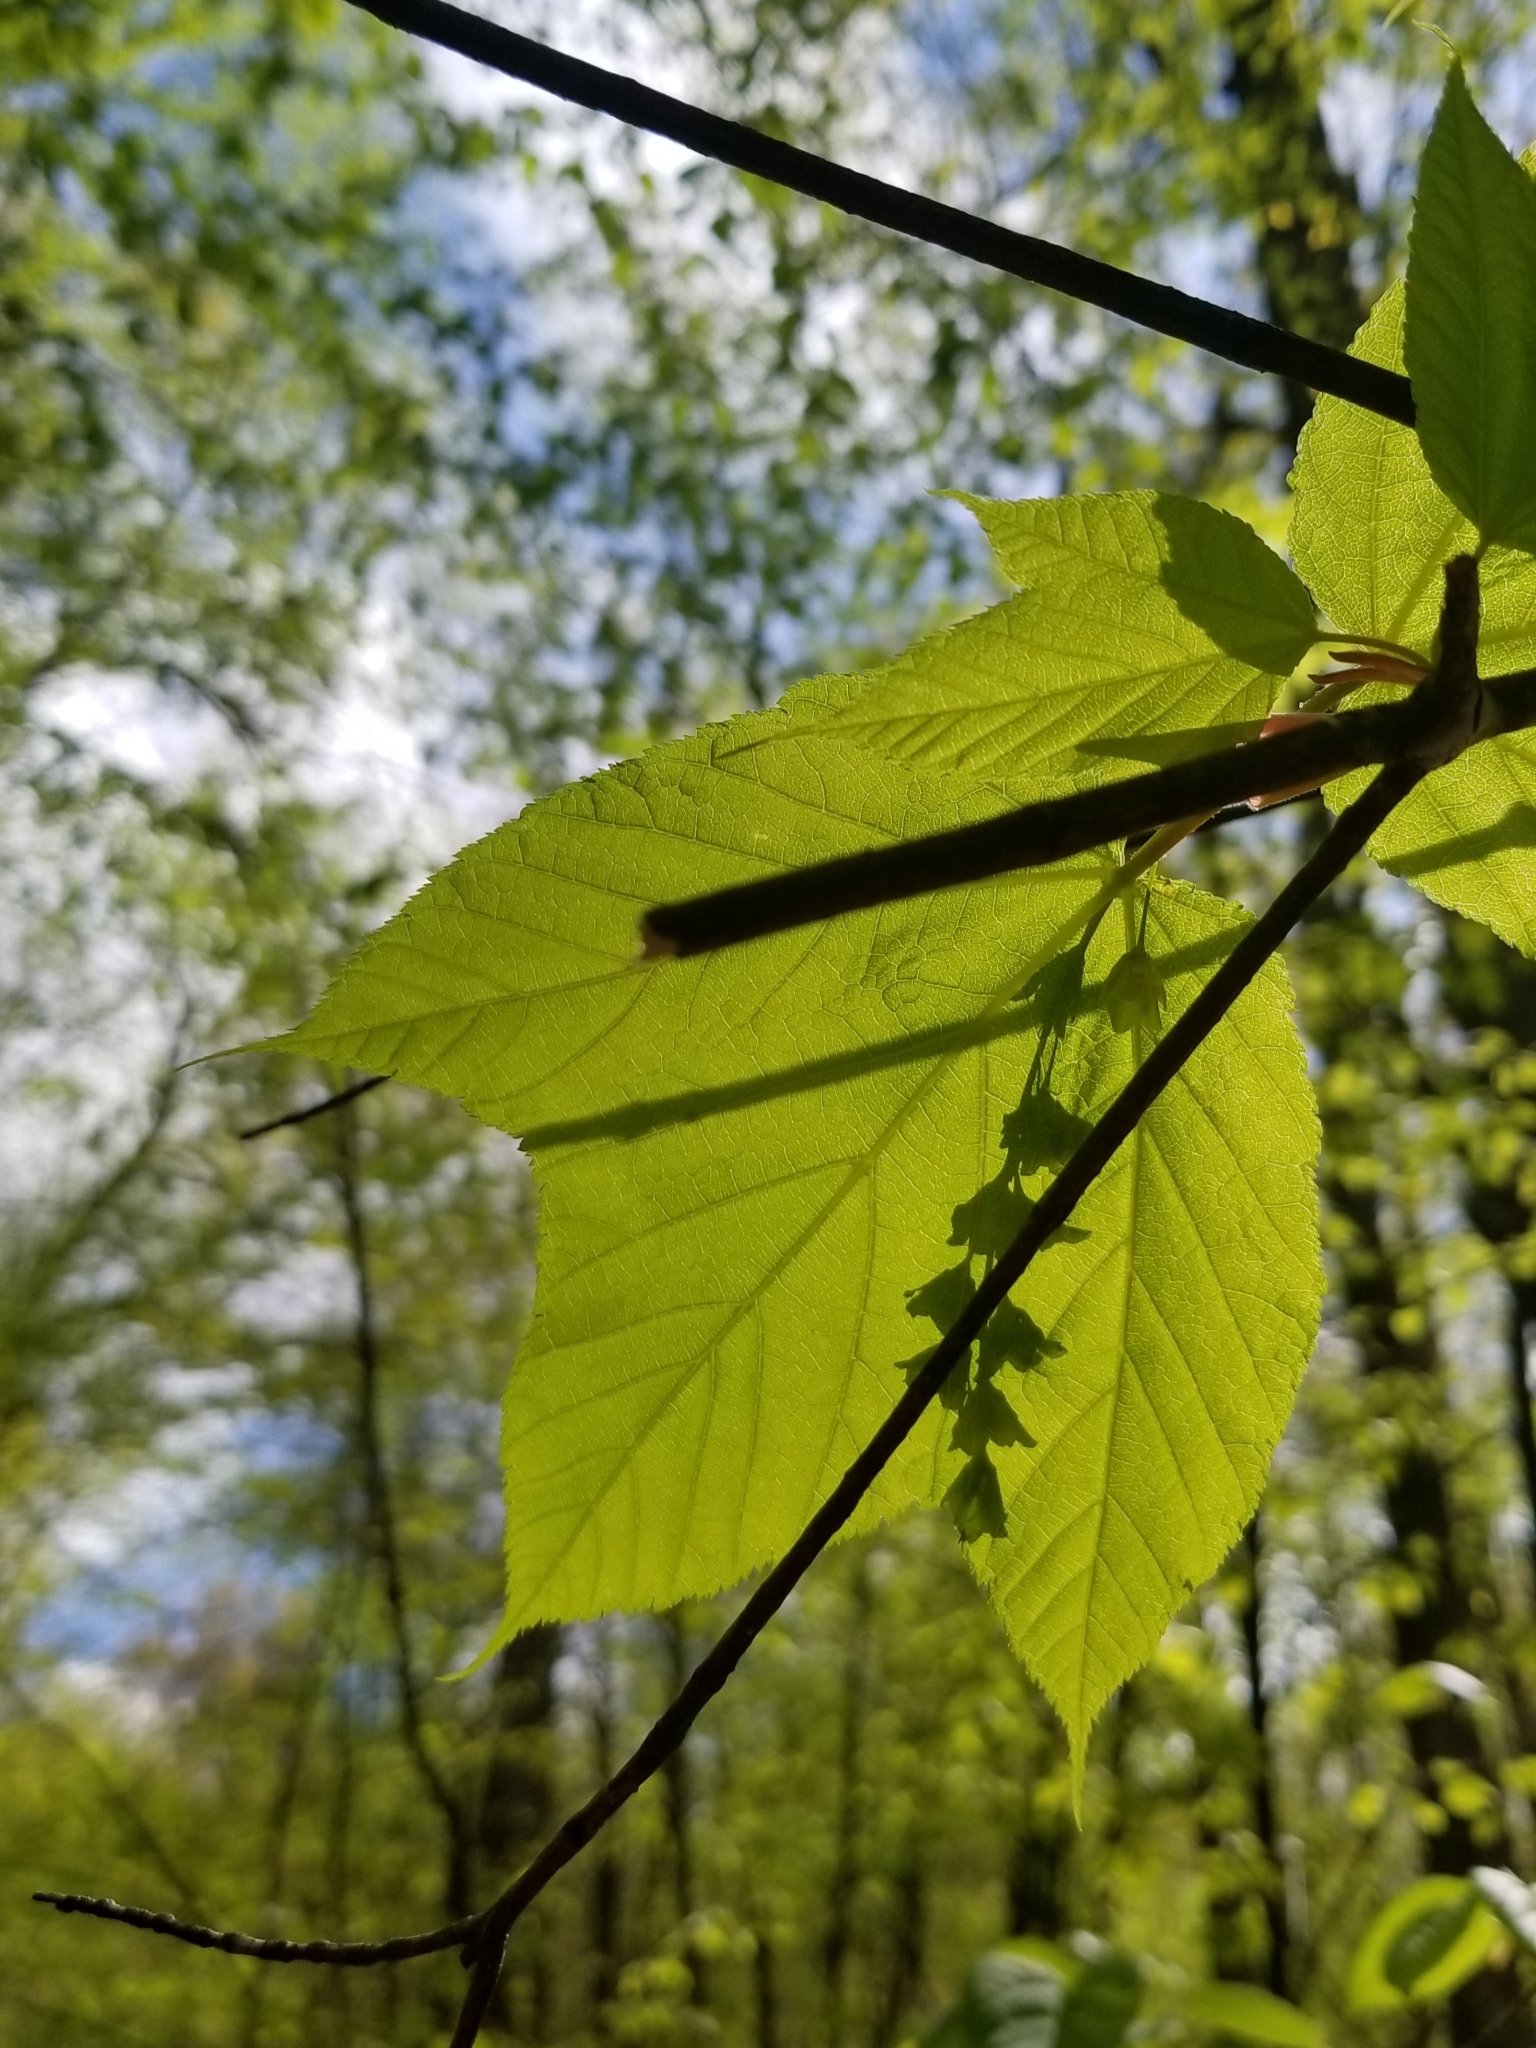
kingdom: Plantae
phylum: Tracheophyta
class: Magnoliopsida
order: Sapindales
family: Sapindaceae
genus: Acer
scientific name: Acer pensylvanicum
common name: Moosewood
